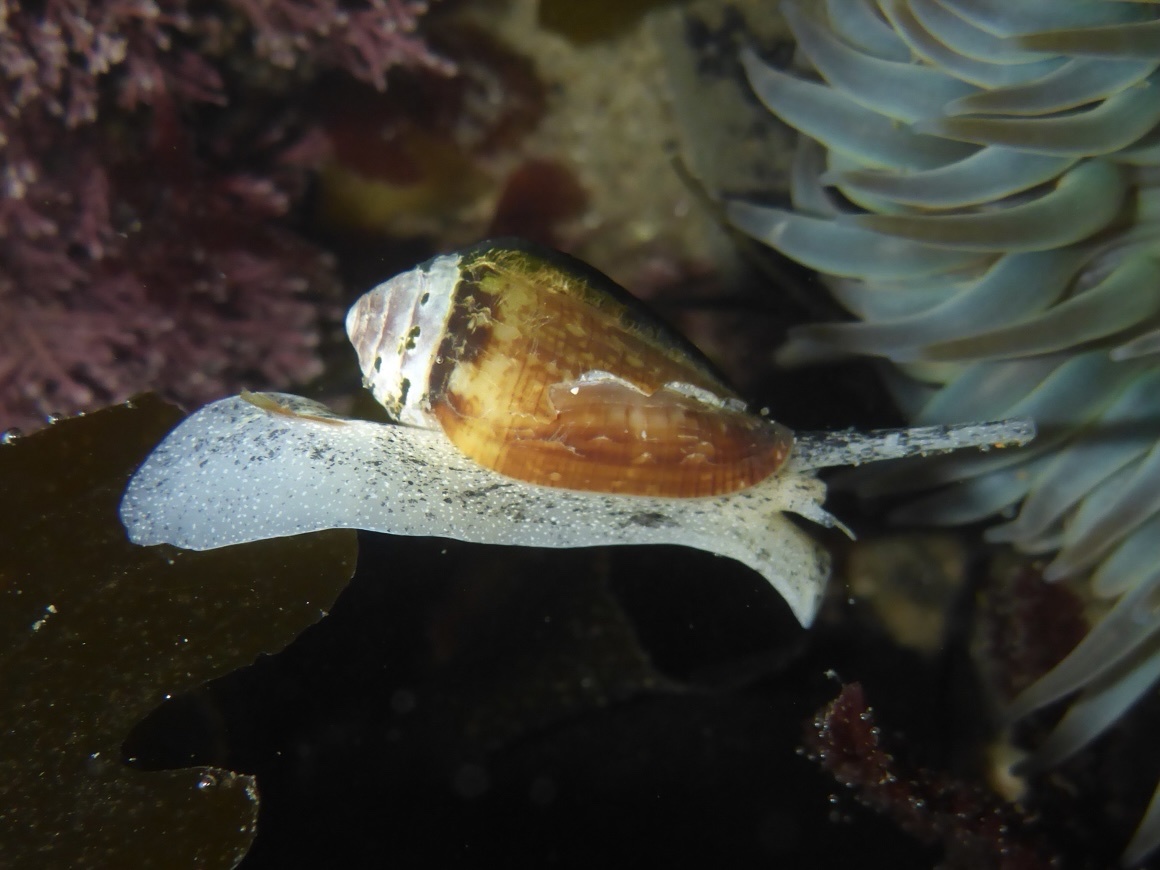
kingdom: Animalia
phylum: Mollusca
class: Gastropoda
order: Neogastropoda
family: Conidae
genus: Californiconus
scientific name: Californiconus californicus
